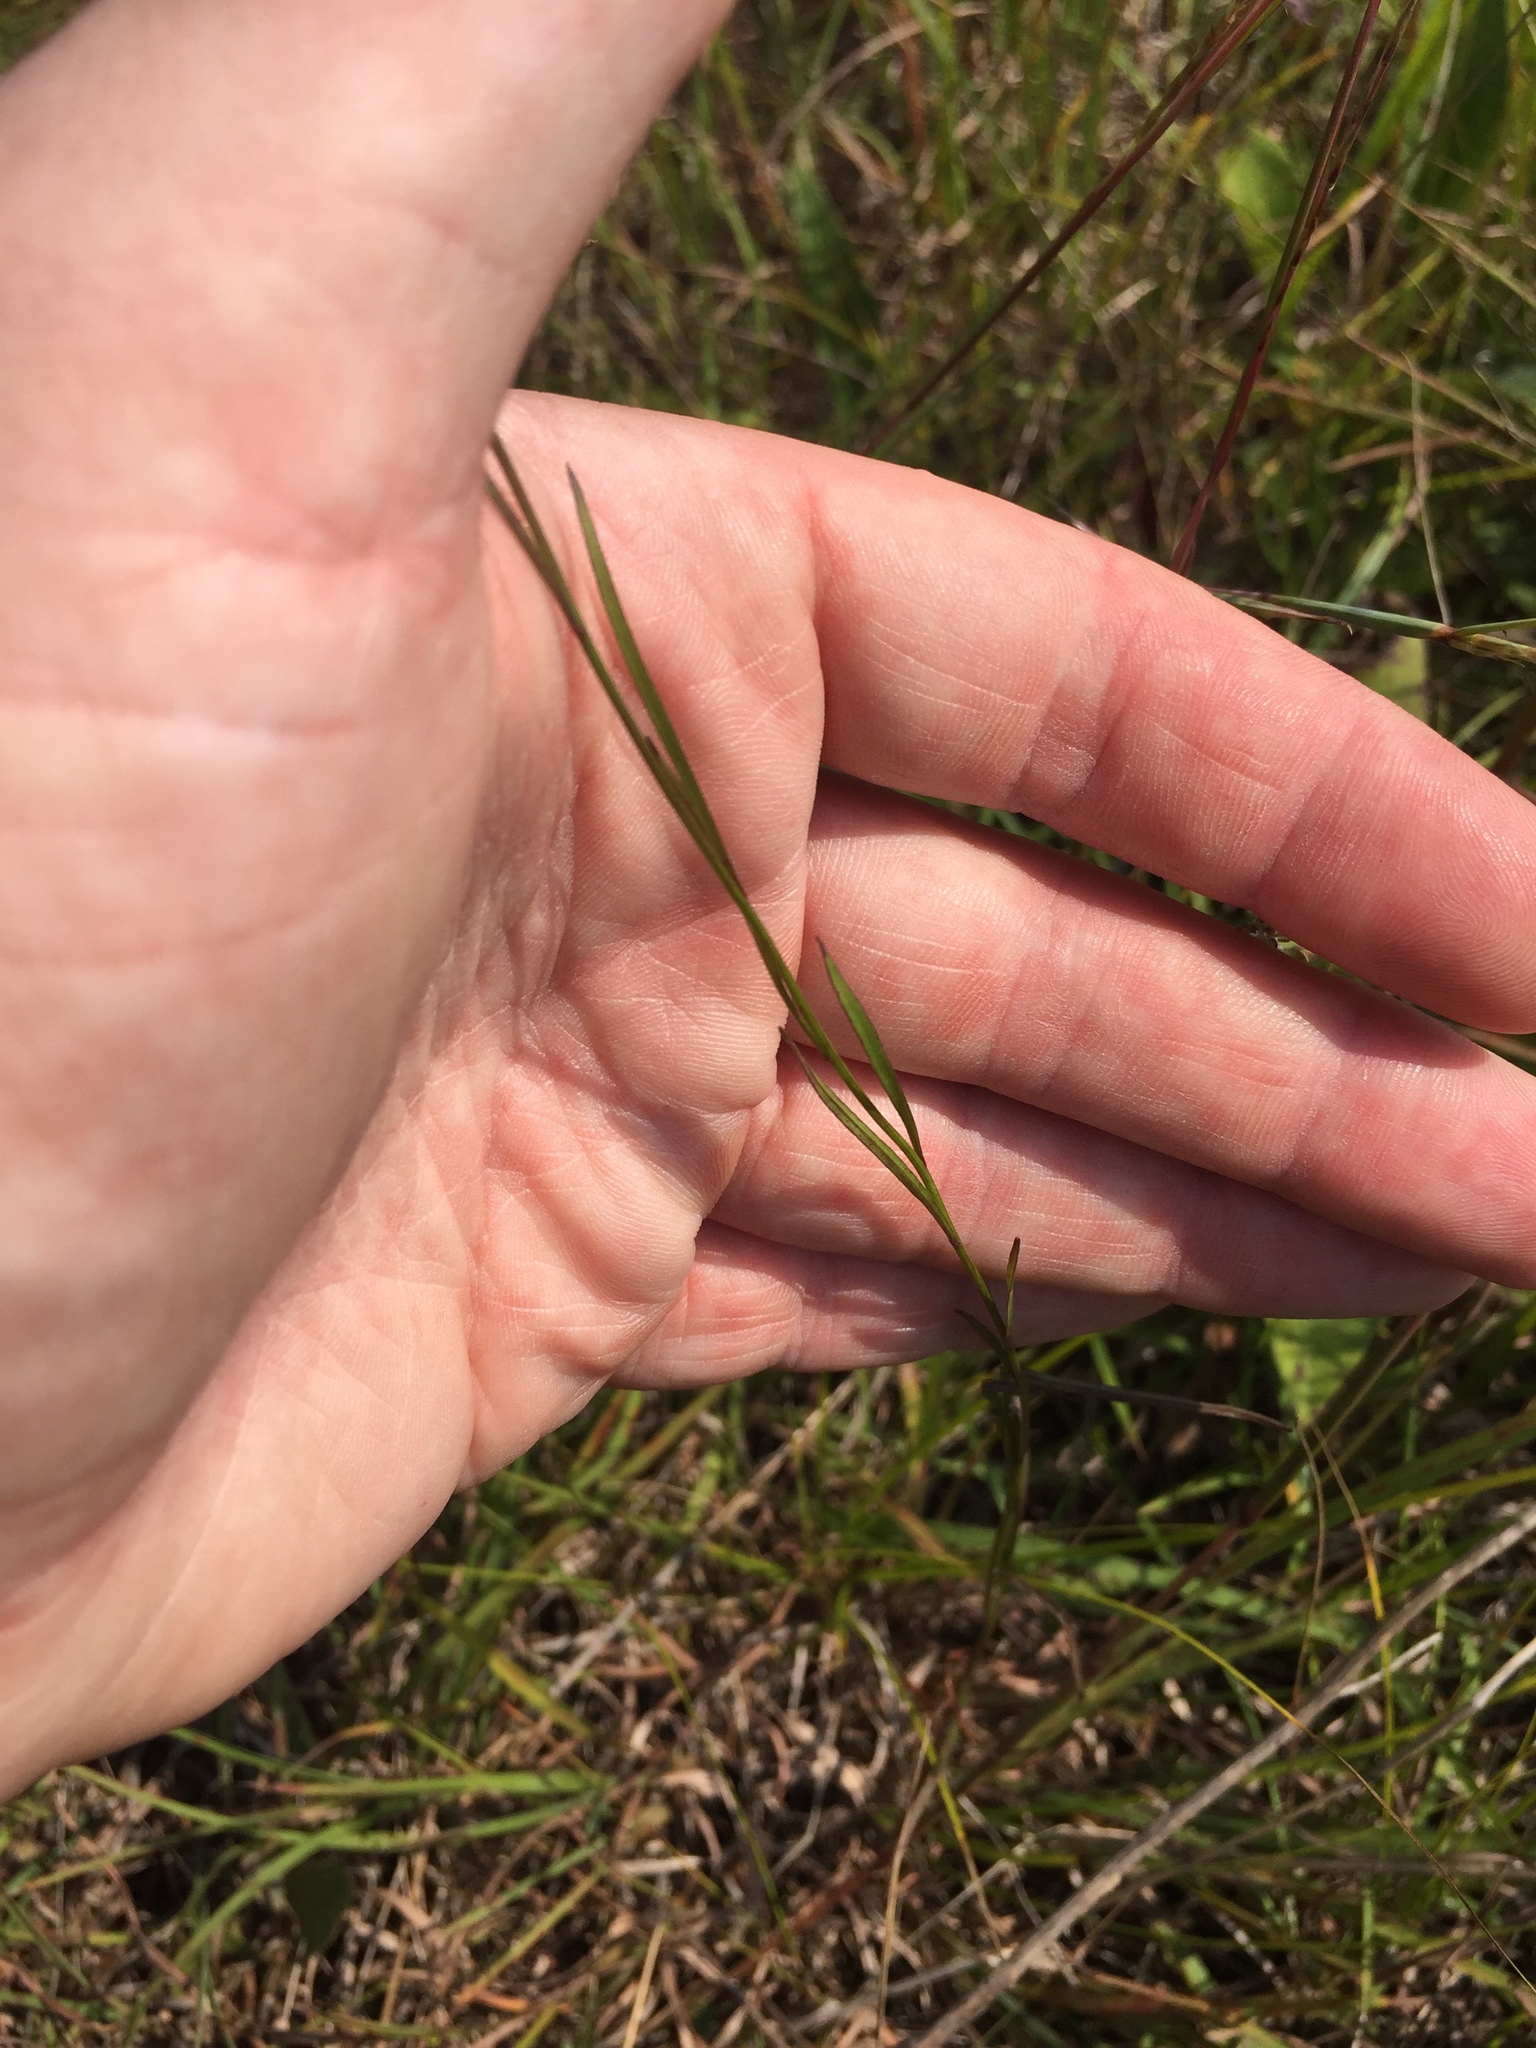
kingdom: Plantae
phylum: Tracheophyta
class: Magnoliopsida
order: Asterales
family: Campanulaceae
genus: Campanula
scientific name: Campanula intercedens
